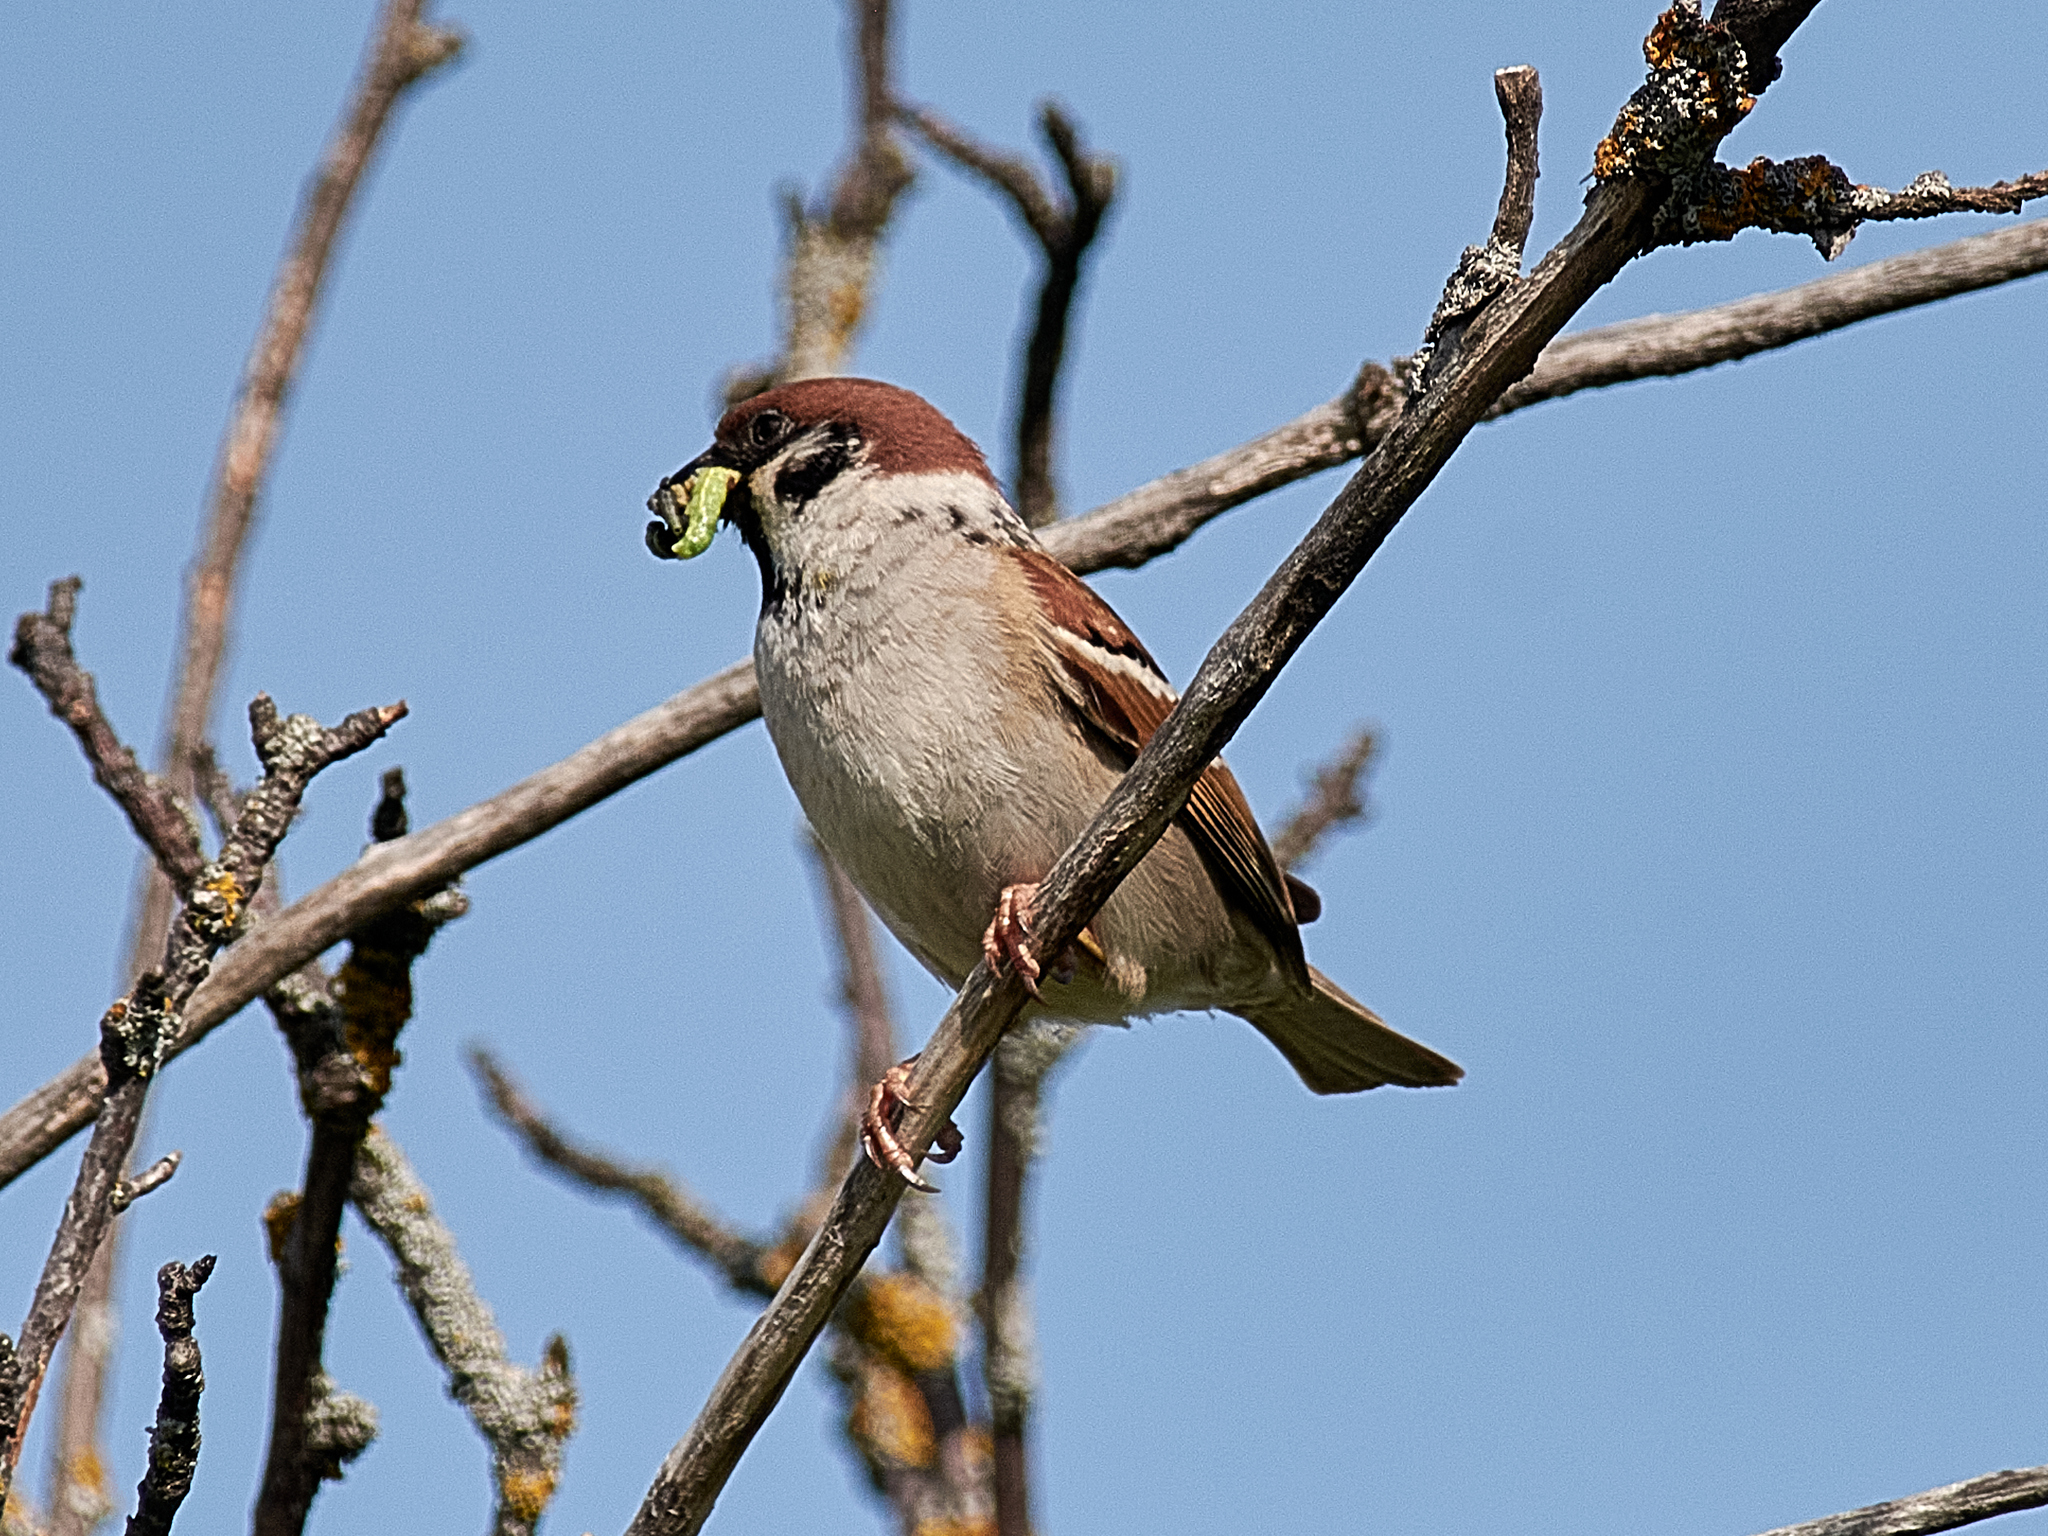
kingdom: Animalia
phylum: Chordata
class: Aves
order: Passeriformes
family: Passeridae
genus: Passer
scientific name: Passer montanus
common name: Eurasian tree sparrow
